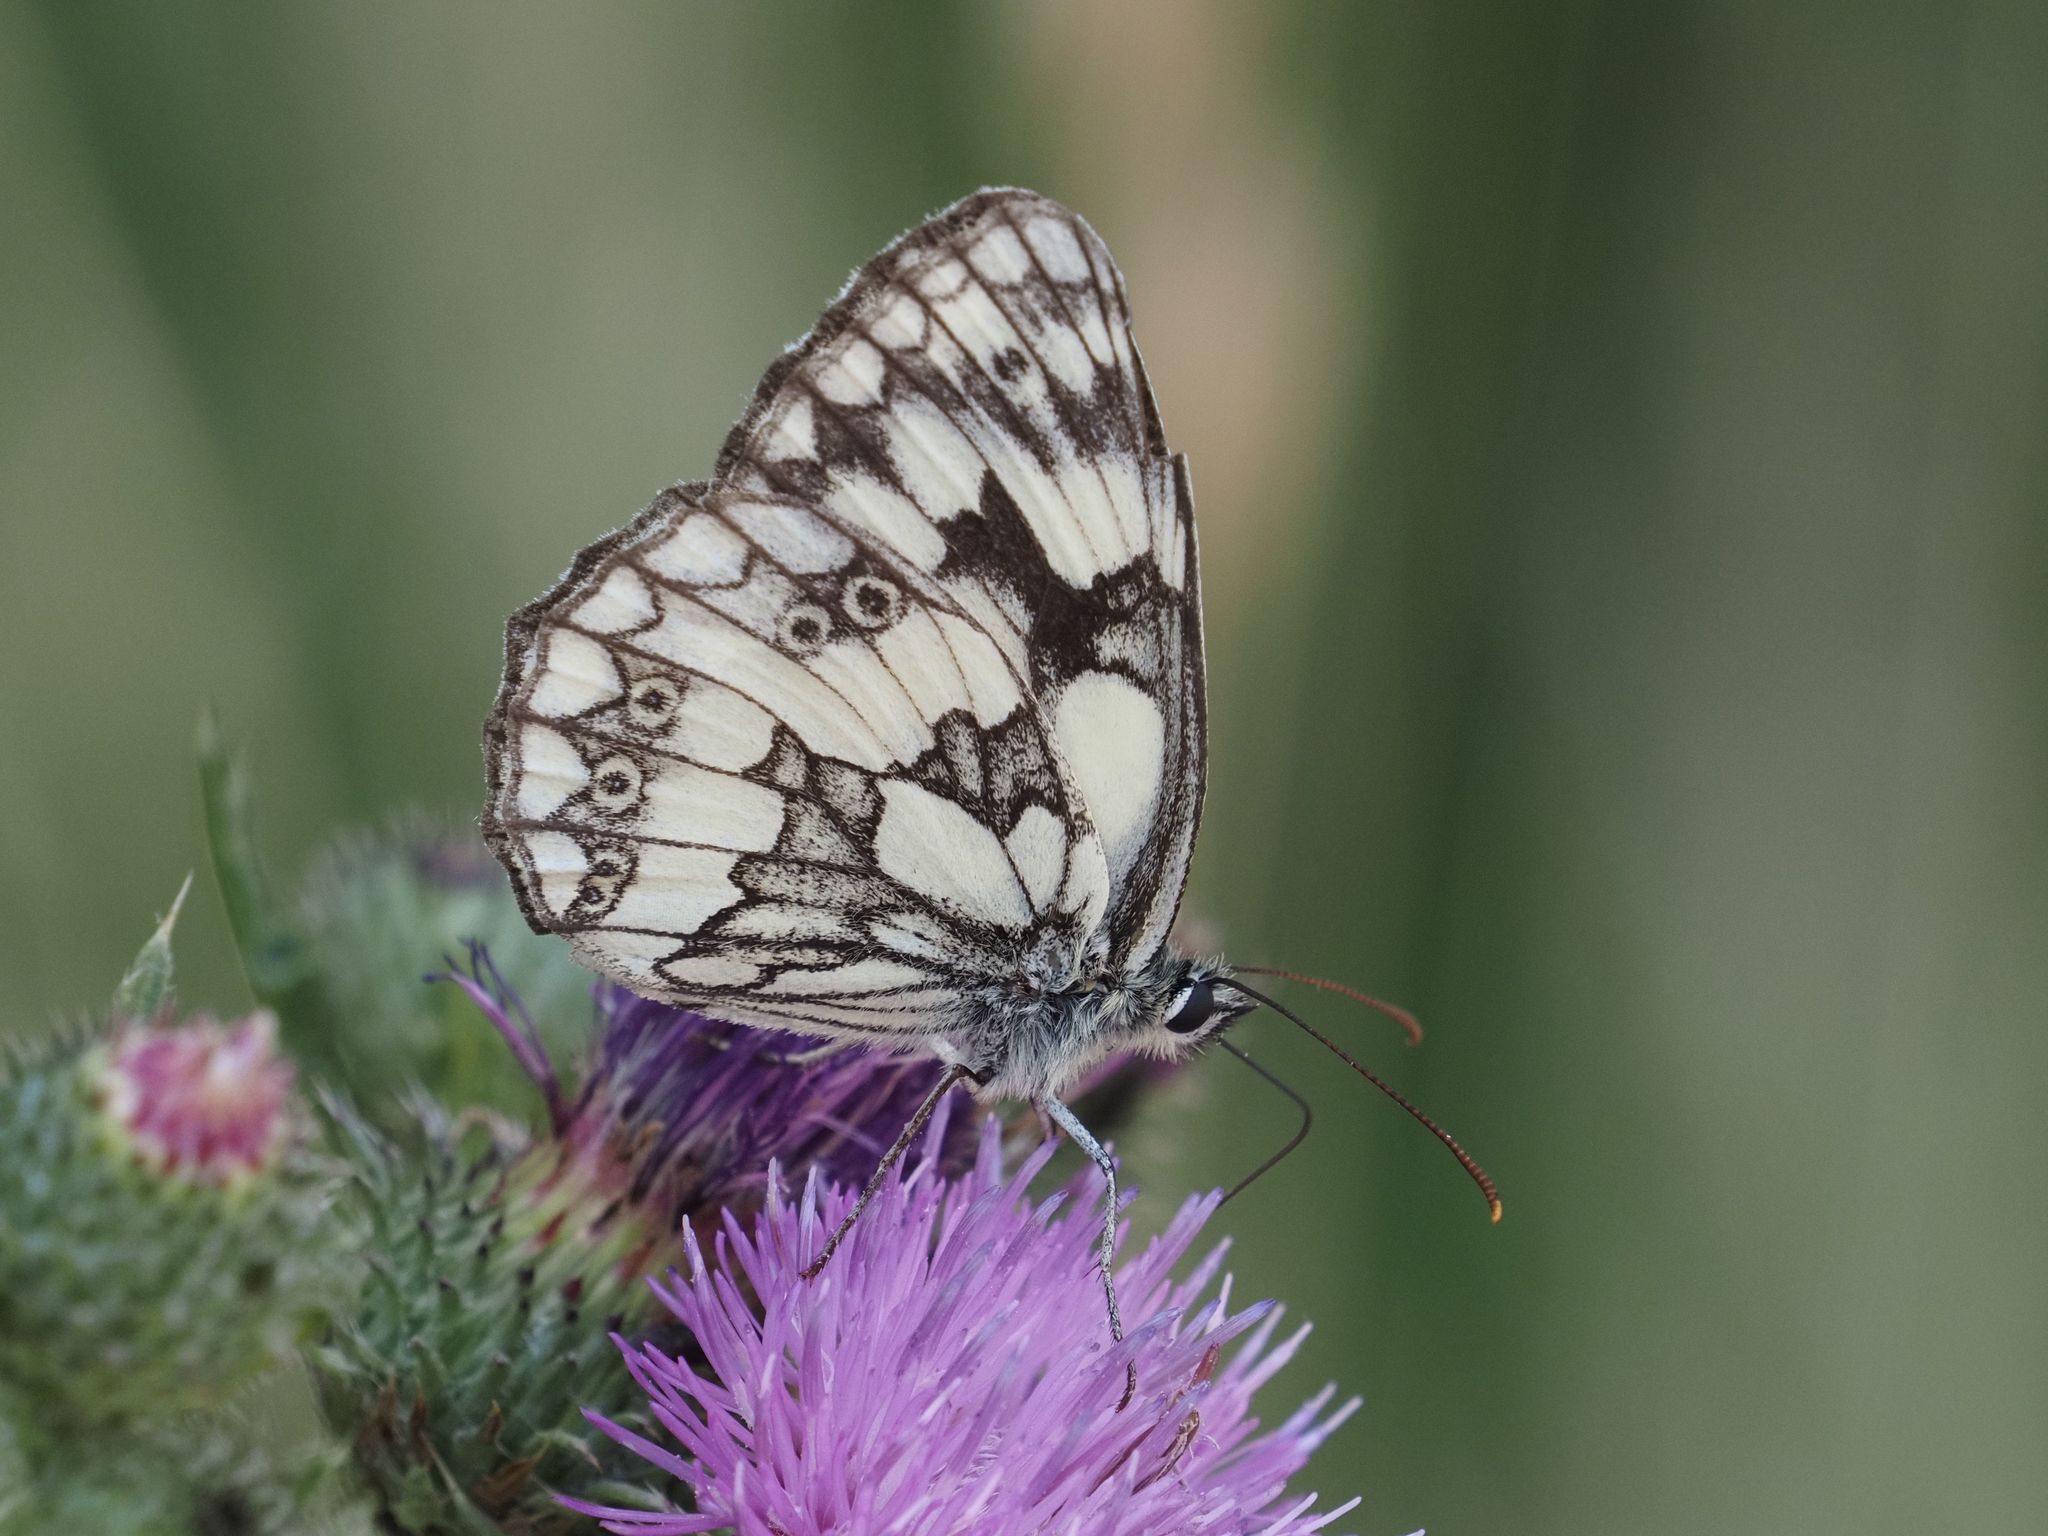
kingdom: Animalia
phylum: Arthropoda
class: Insecta
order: Lepidoptera
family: Nymphalidae
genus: Melanargia
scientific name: Melanargia galathea
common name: Marbled white
